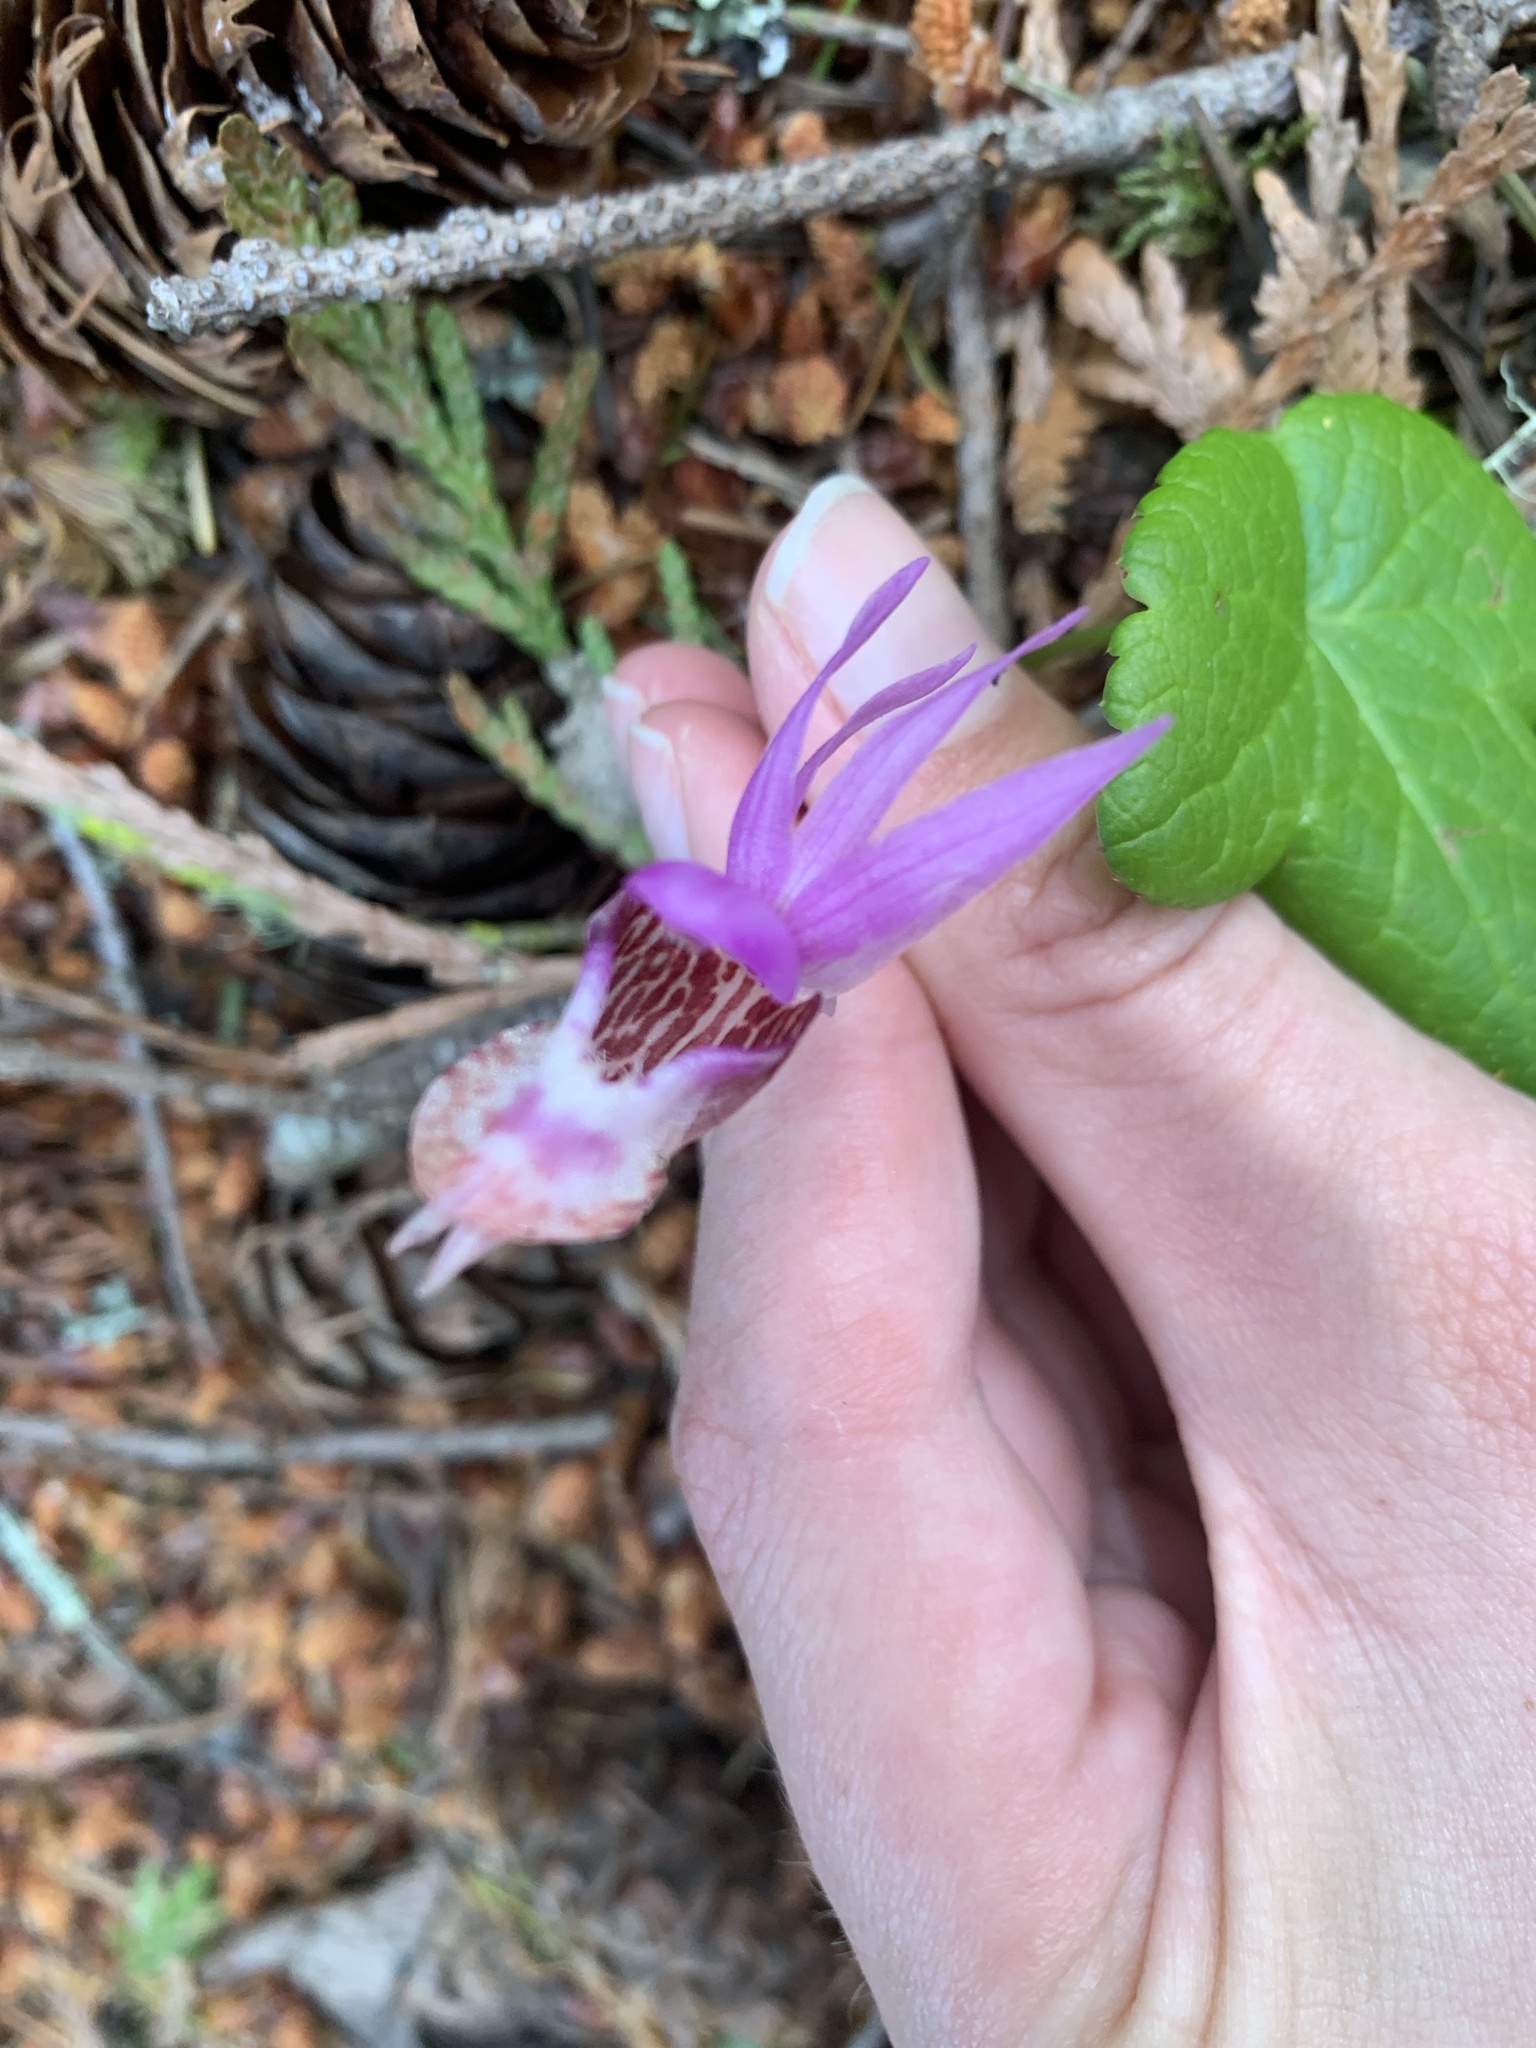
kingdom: Plantae
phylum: Tracheophyta
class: Liliopsida
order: Asparagales
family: Orchidaceae
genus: Calypso
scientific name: Calypso bulbosa
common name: Calypso
